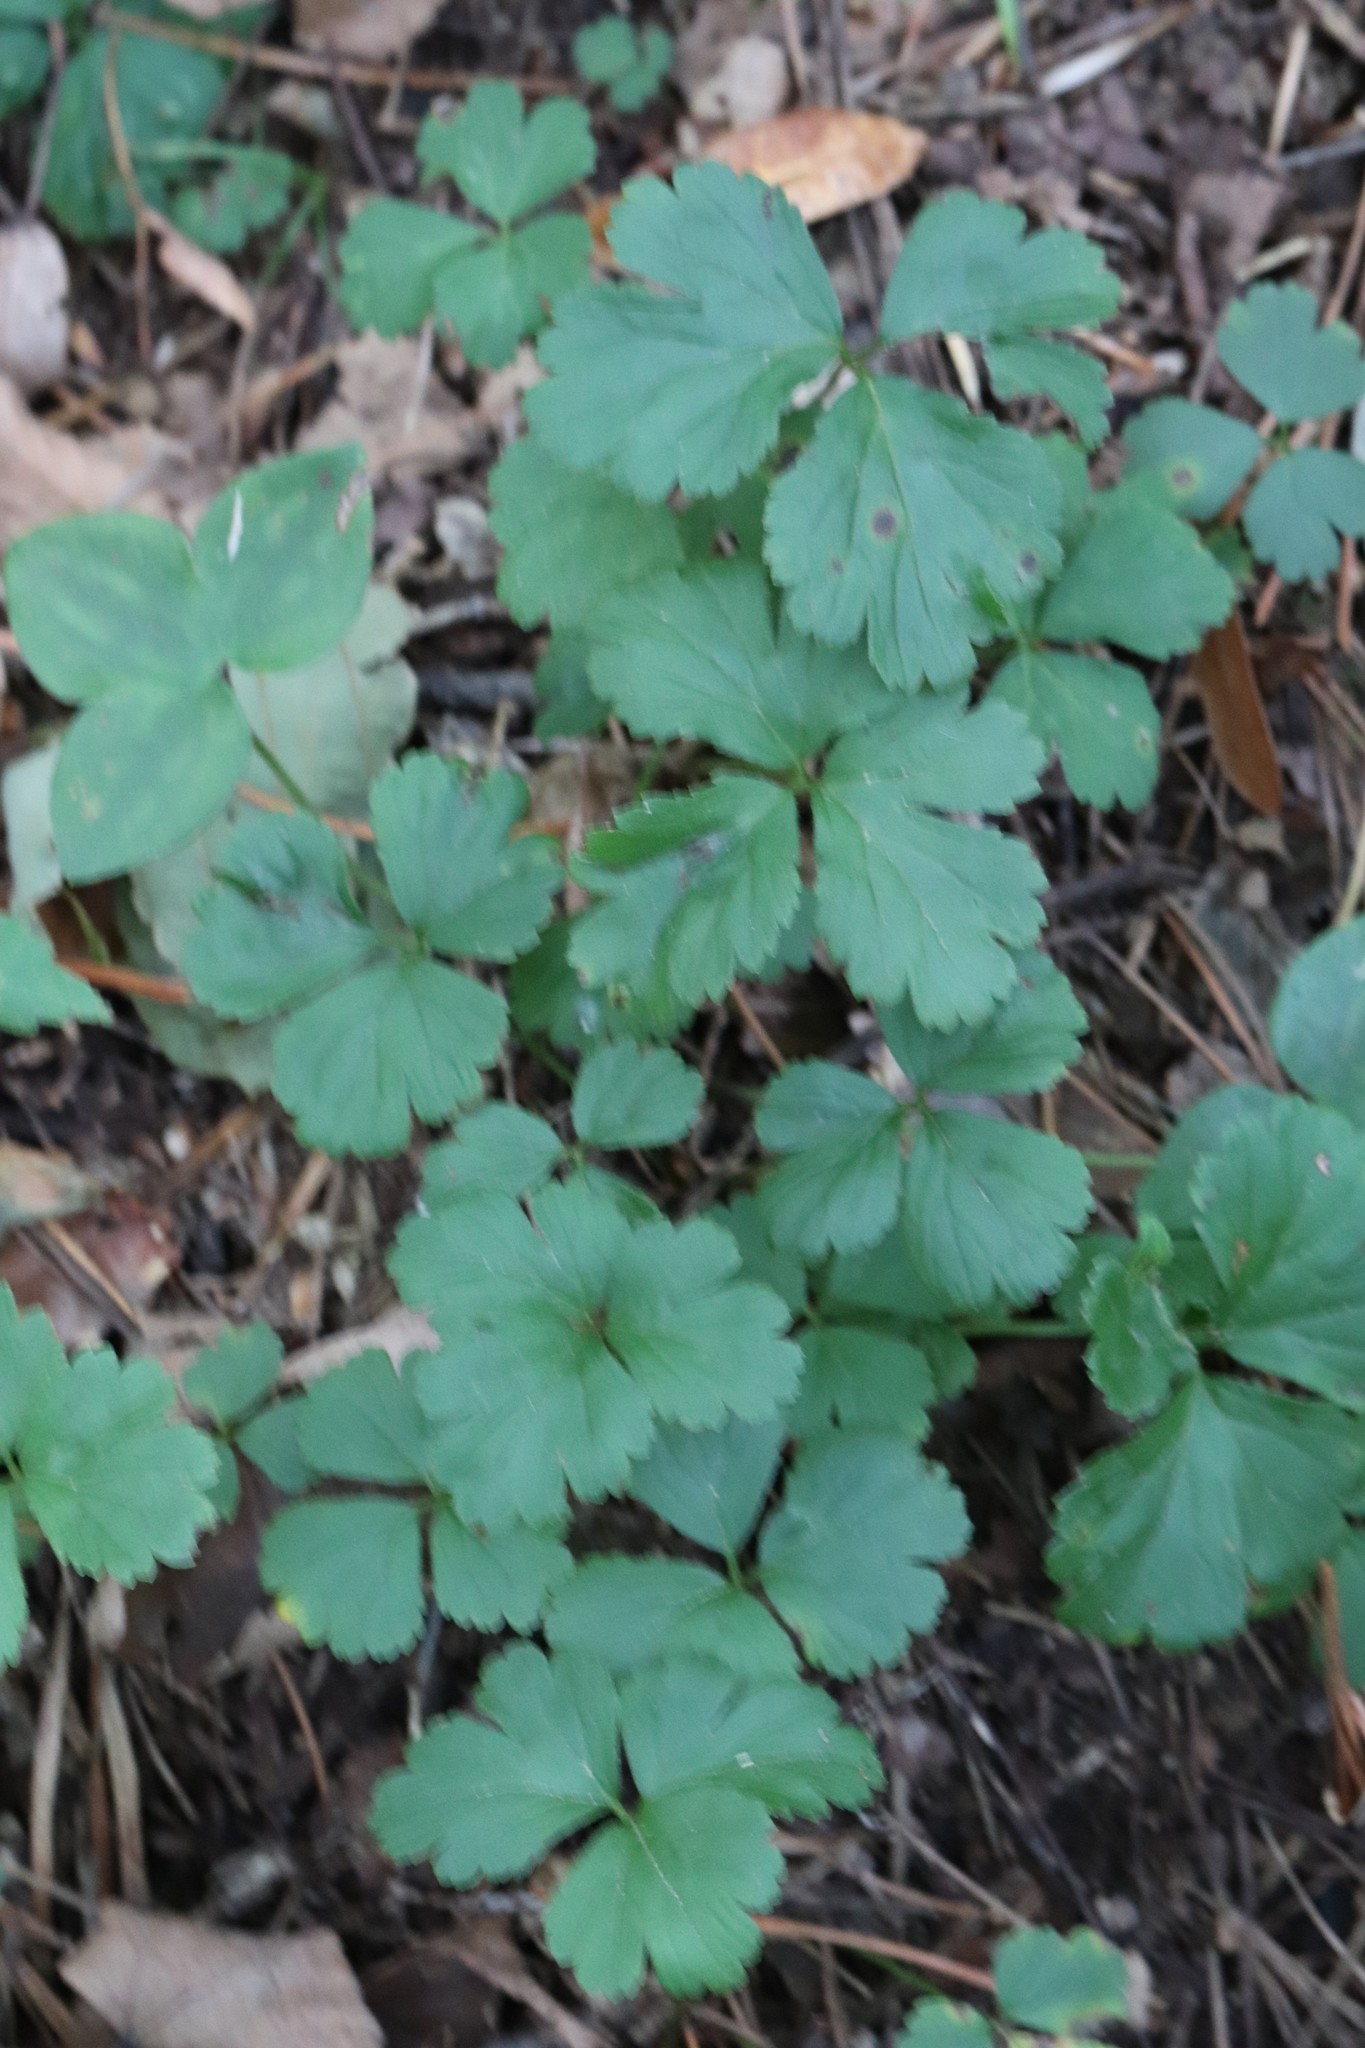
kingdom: Plantae
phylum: Tracheophyta
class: Magnoliopsida
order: Rosales
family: Rosaceae
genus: Geum
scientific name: Geum ternatum
